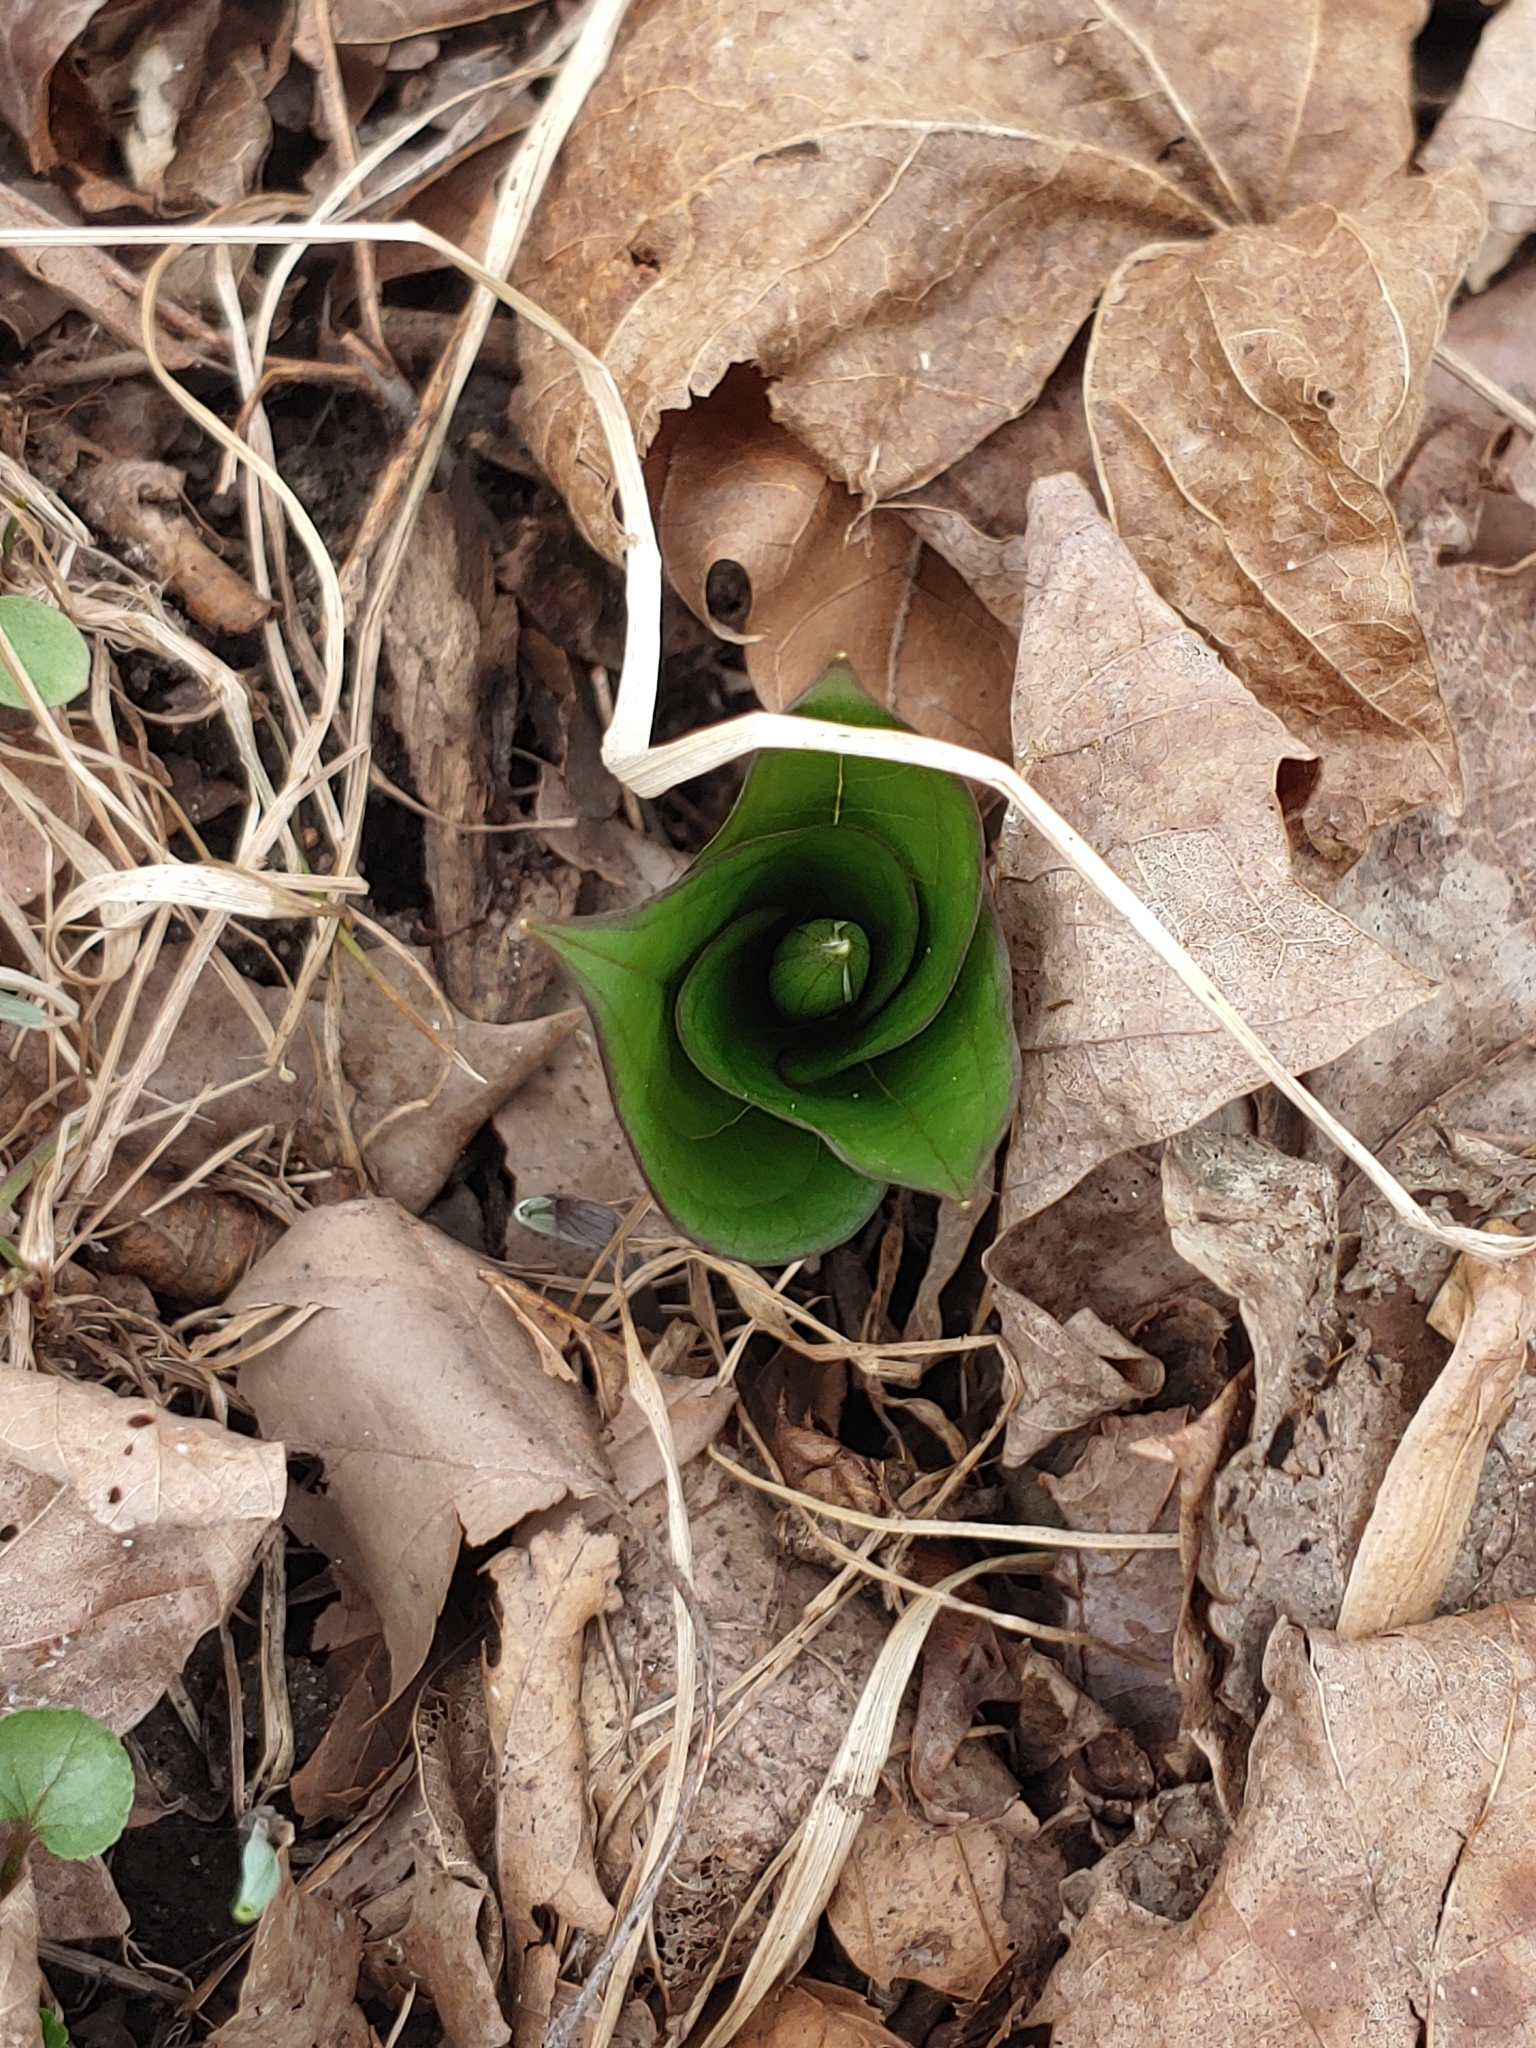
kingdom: Plantae
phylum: Tracheophyta
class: Liliopsida
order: Liliales
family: Melanthiaceae
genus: Trillium
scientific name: Trillium grandiflorum
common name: Great white trillium
